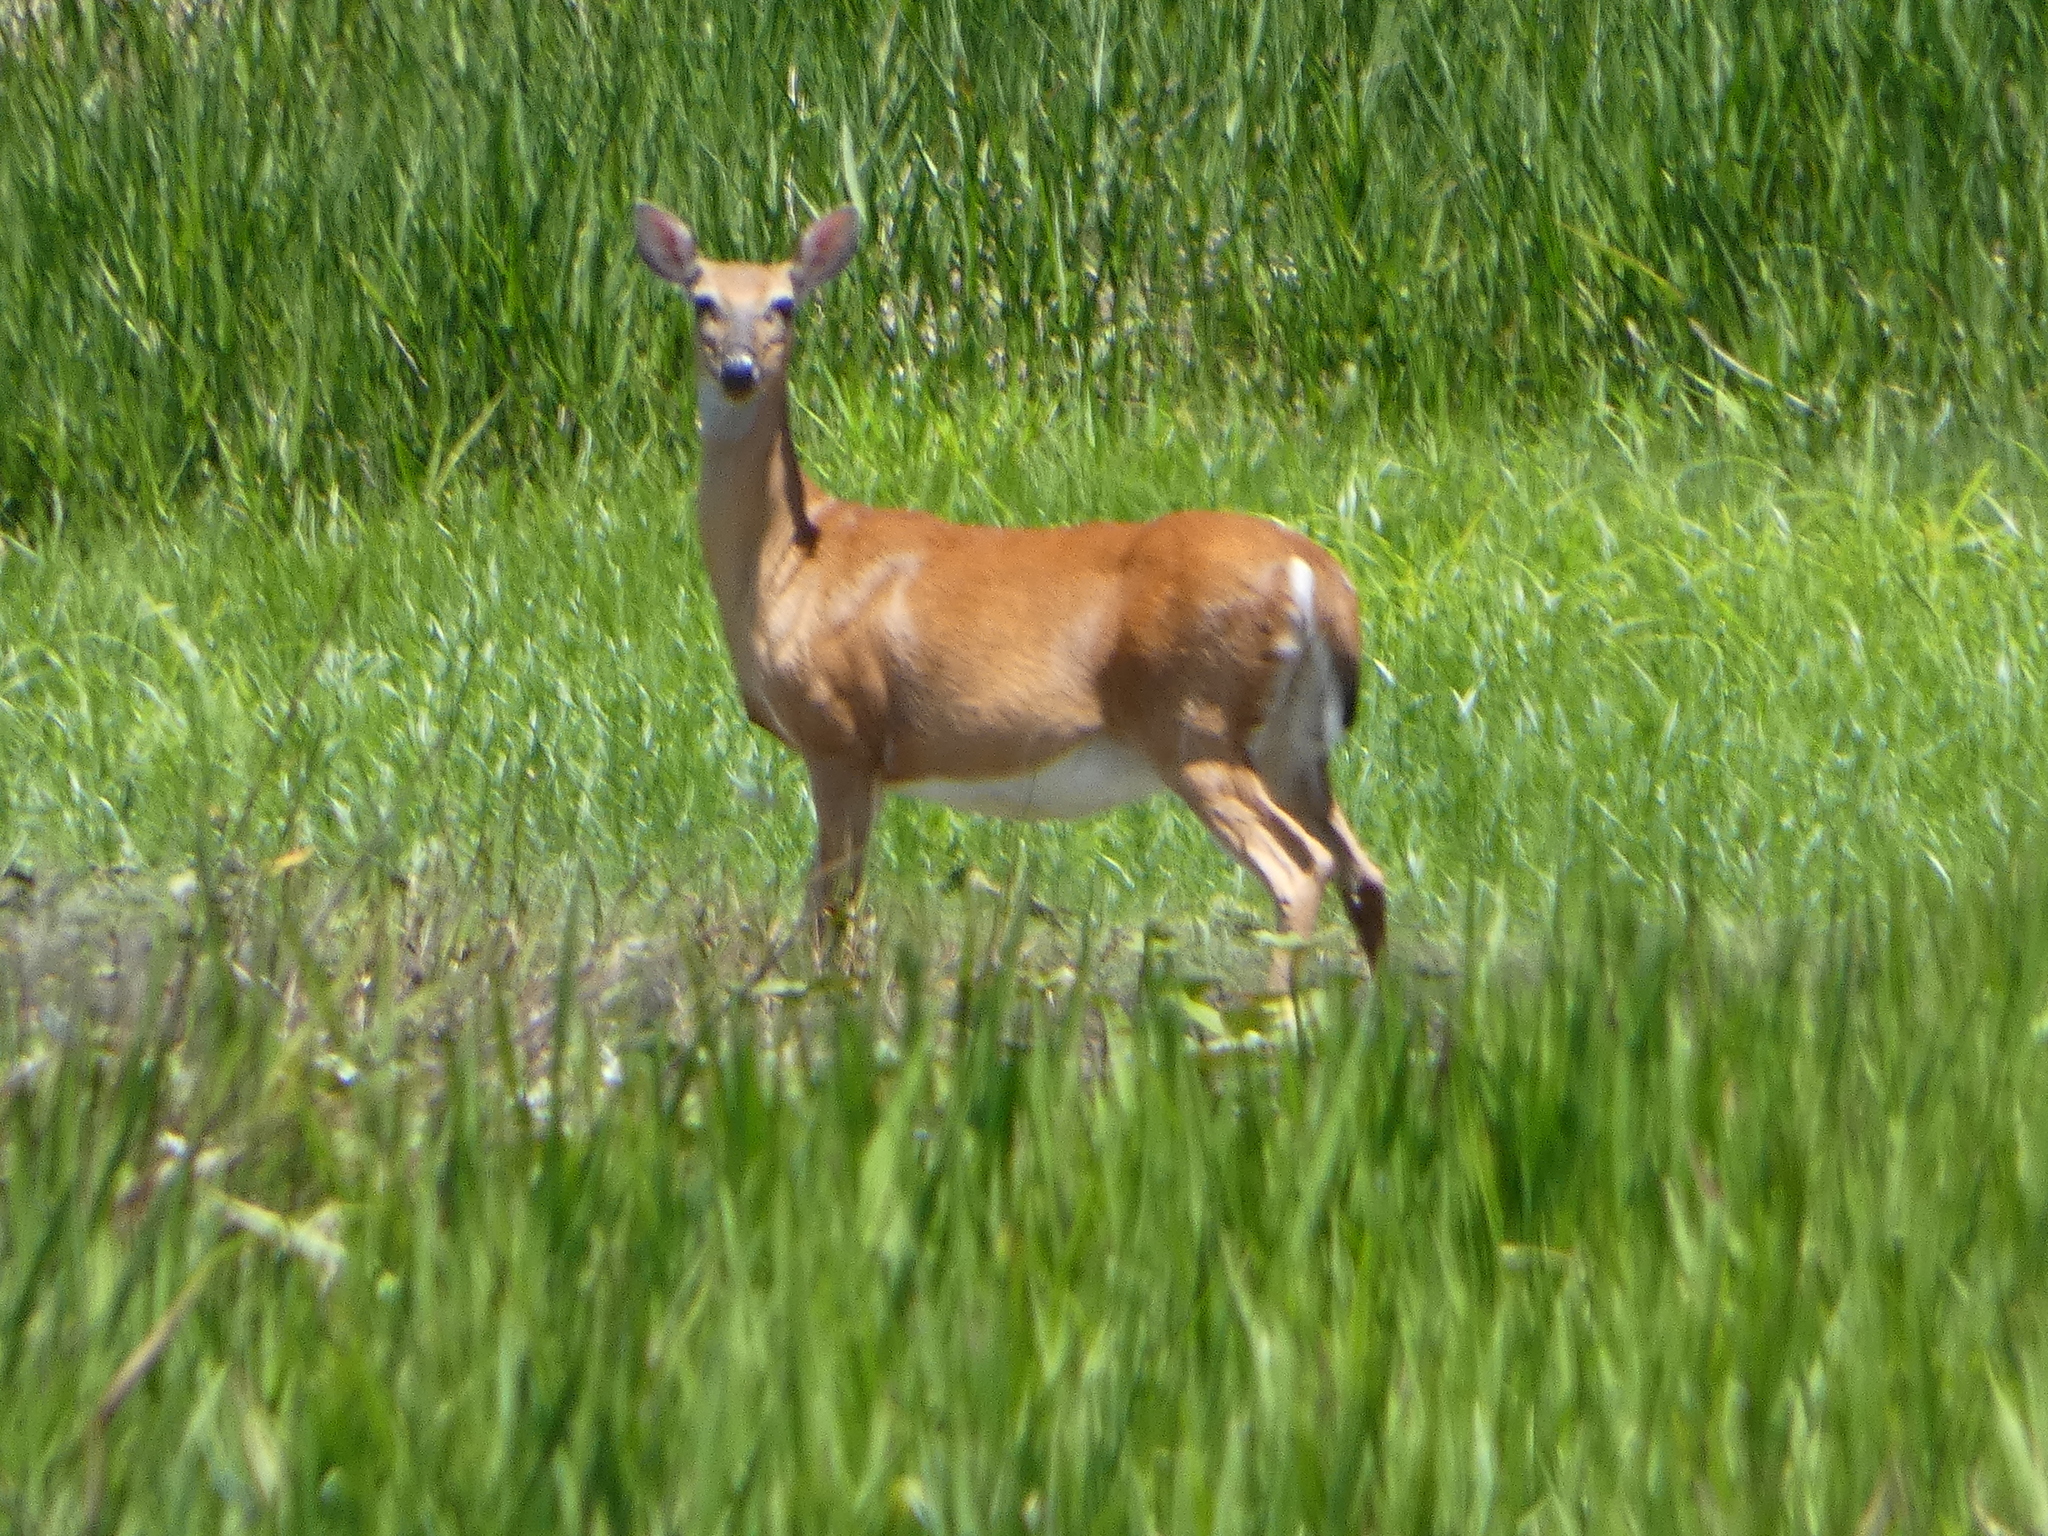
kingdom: Animalia
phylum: Chordata
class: Mammalia
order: Artiodactyla
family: Cervidae
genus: Odocoileus
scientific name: Odocoileus virginianus
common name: White-tailed deer
